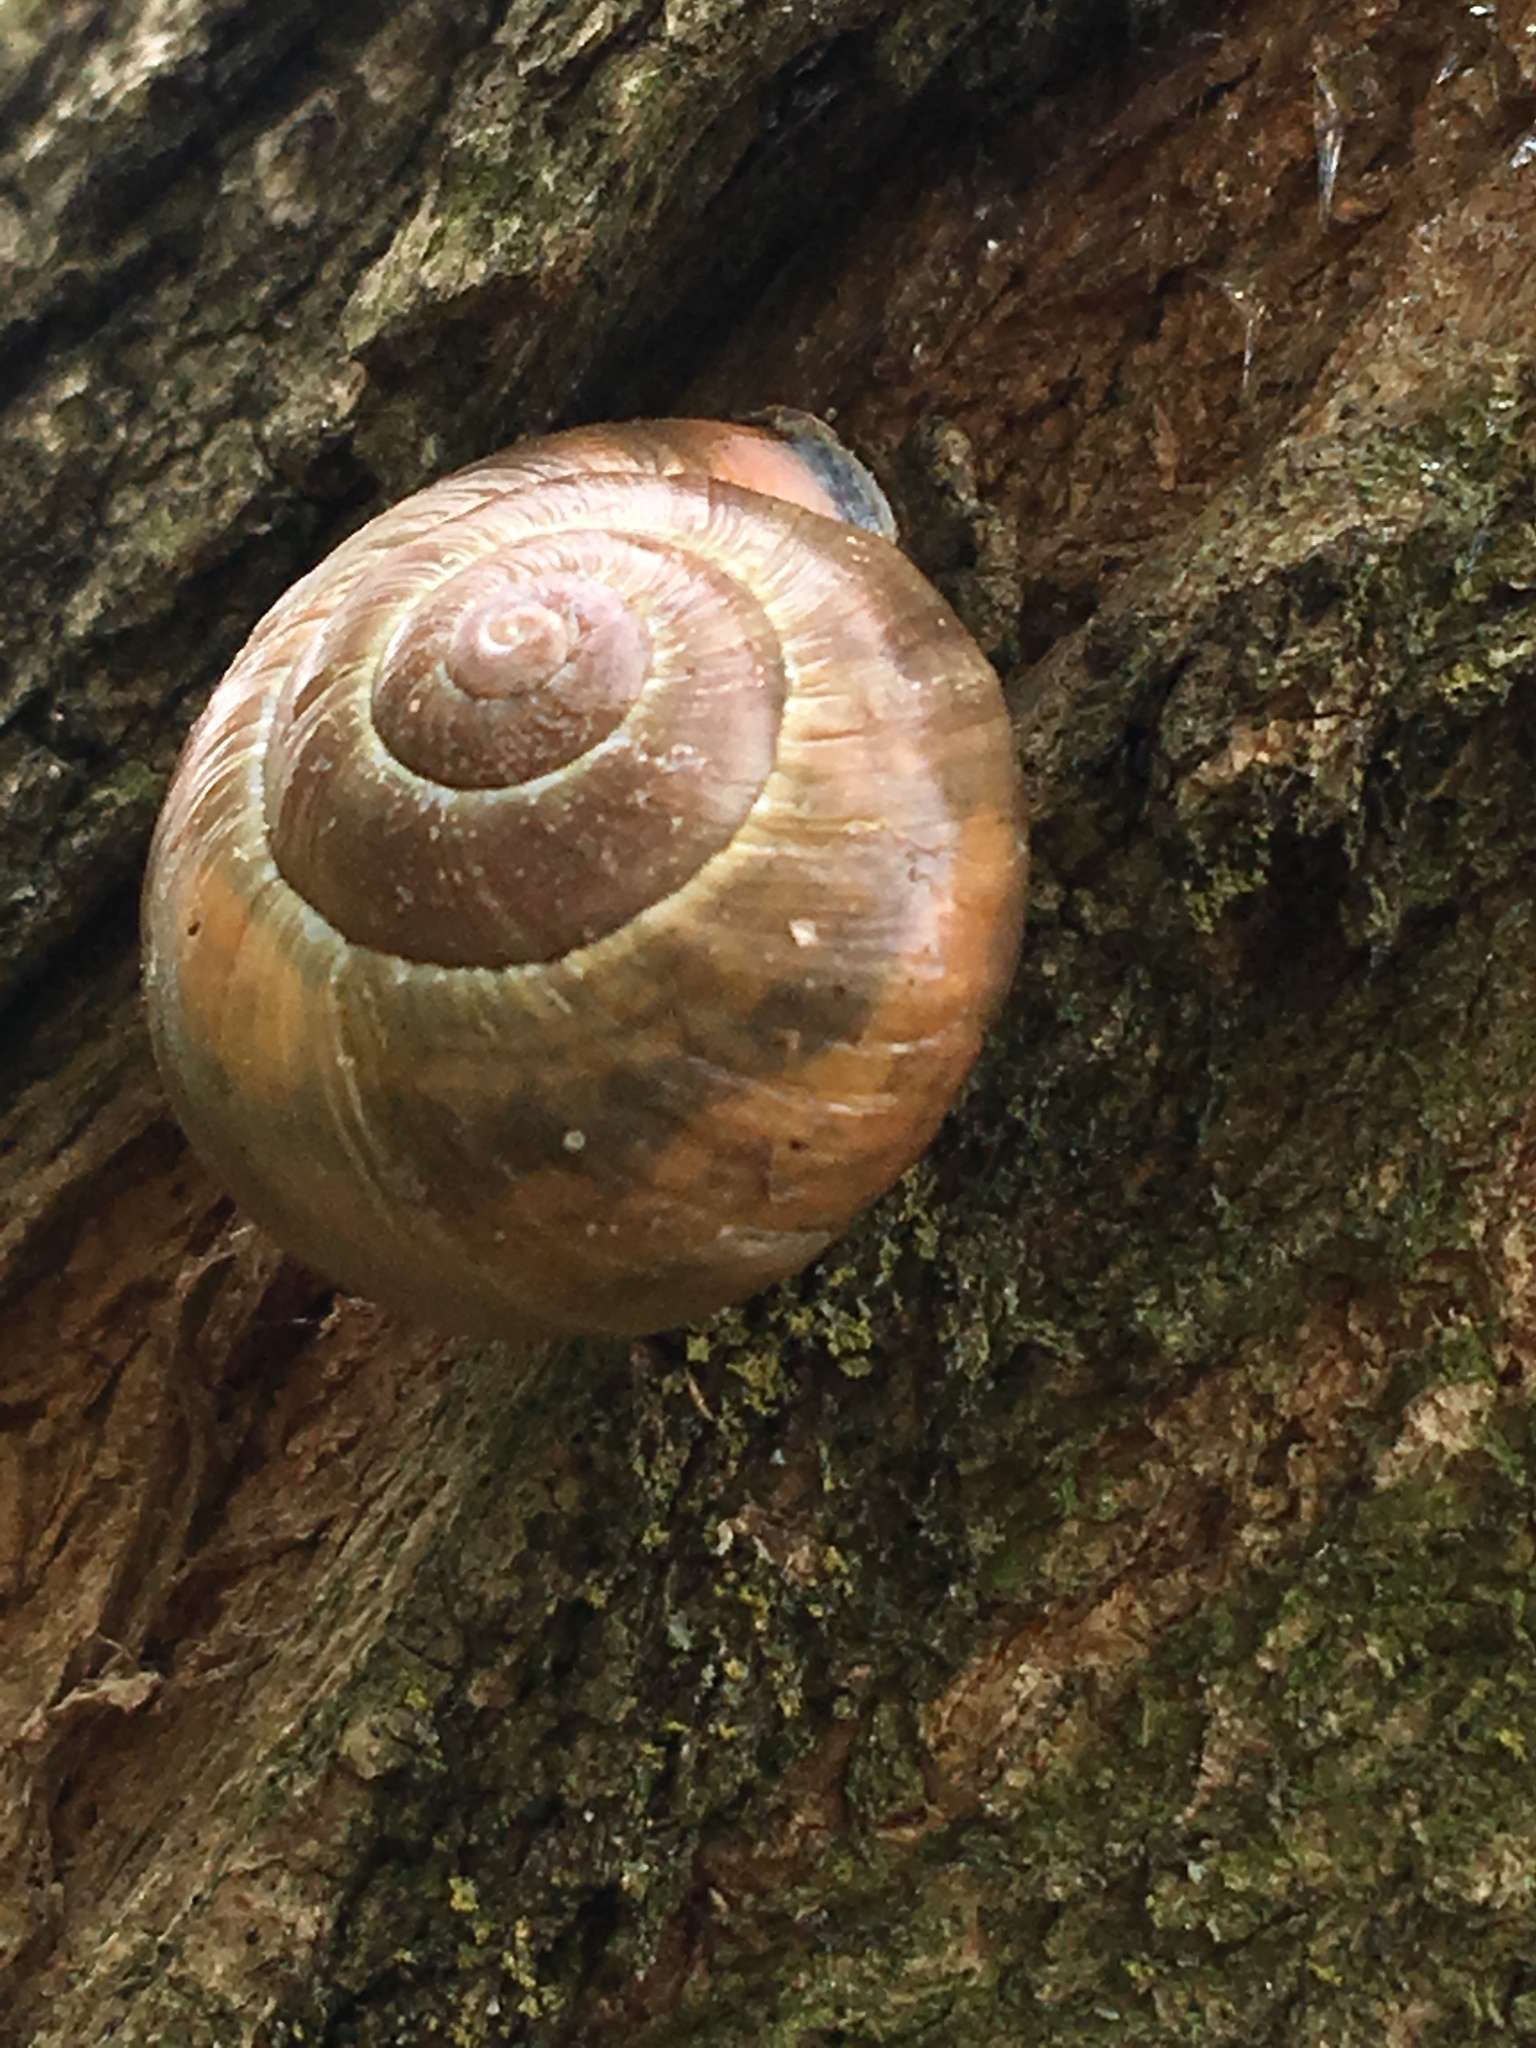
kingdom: Animalia
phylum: Mollusca
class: Gastropoda
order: Stylommatophora
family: Helicidae
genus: Cepaea
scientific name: Cepaea nemoralis
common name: Grovesnail
